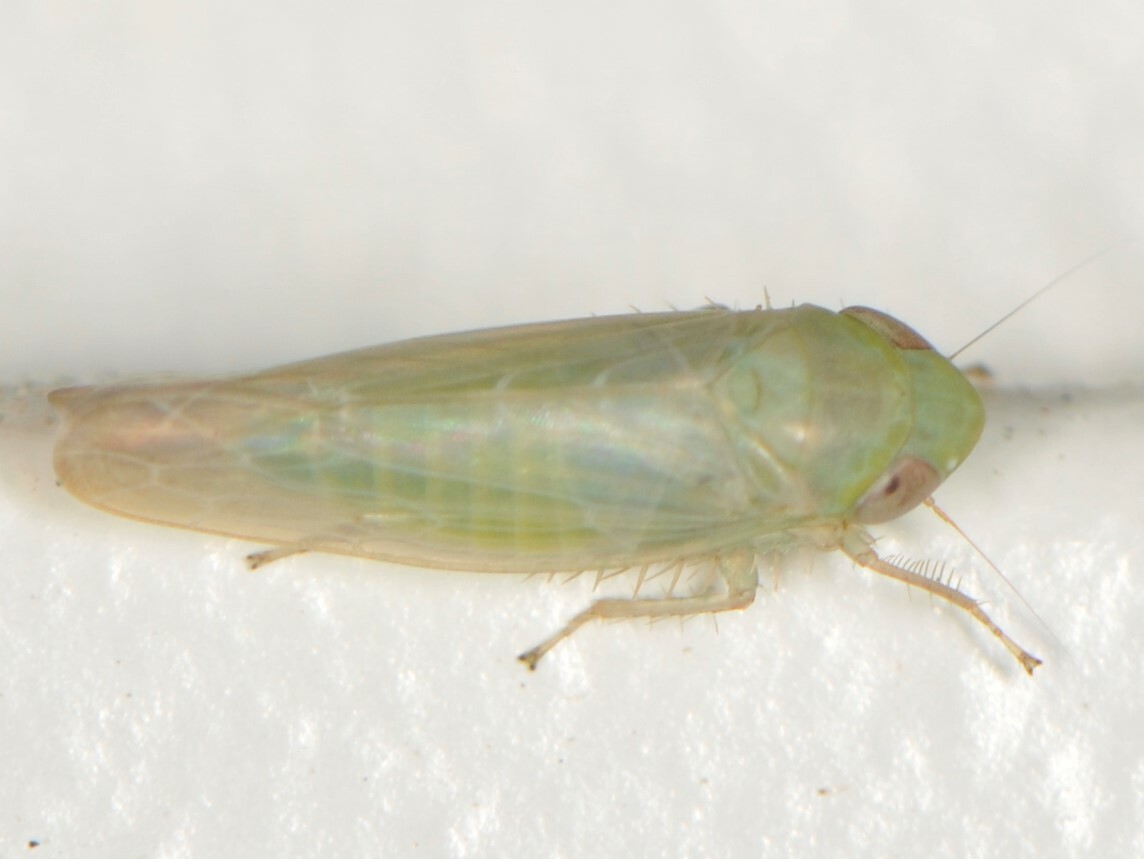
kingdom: Animalia
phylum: Arthropoda
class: Insecta
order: Hemiptera
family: Cicadellidae
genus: Chlorotettix
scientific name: Chlorotettix
